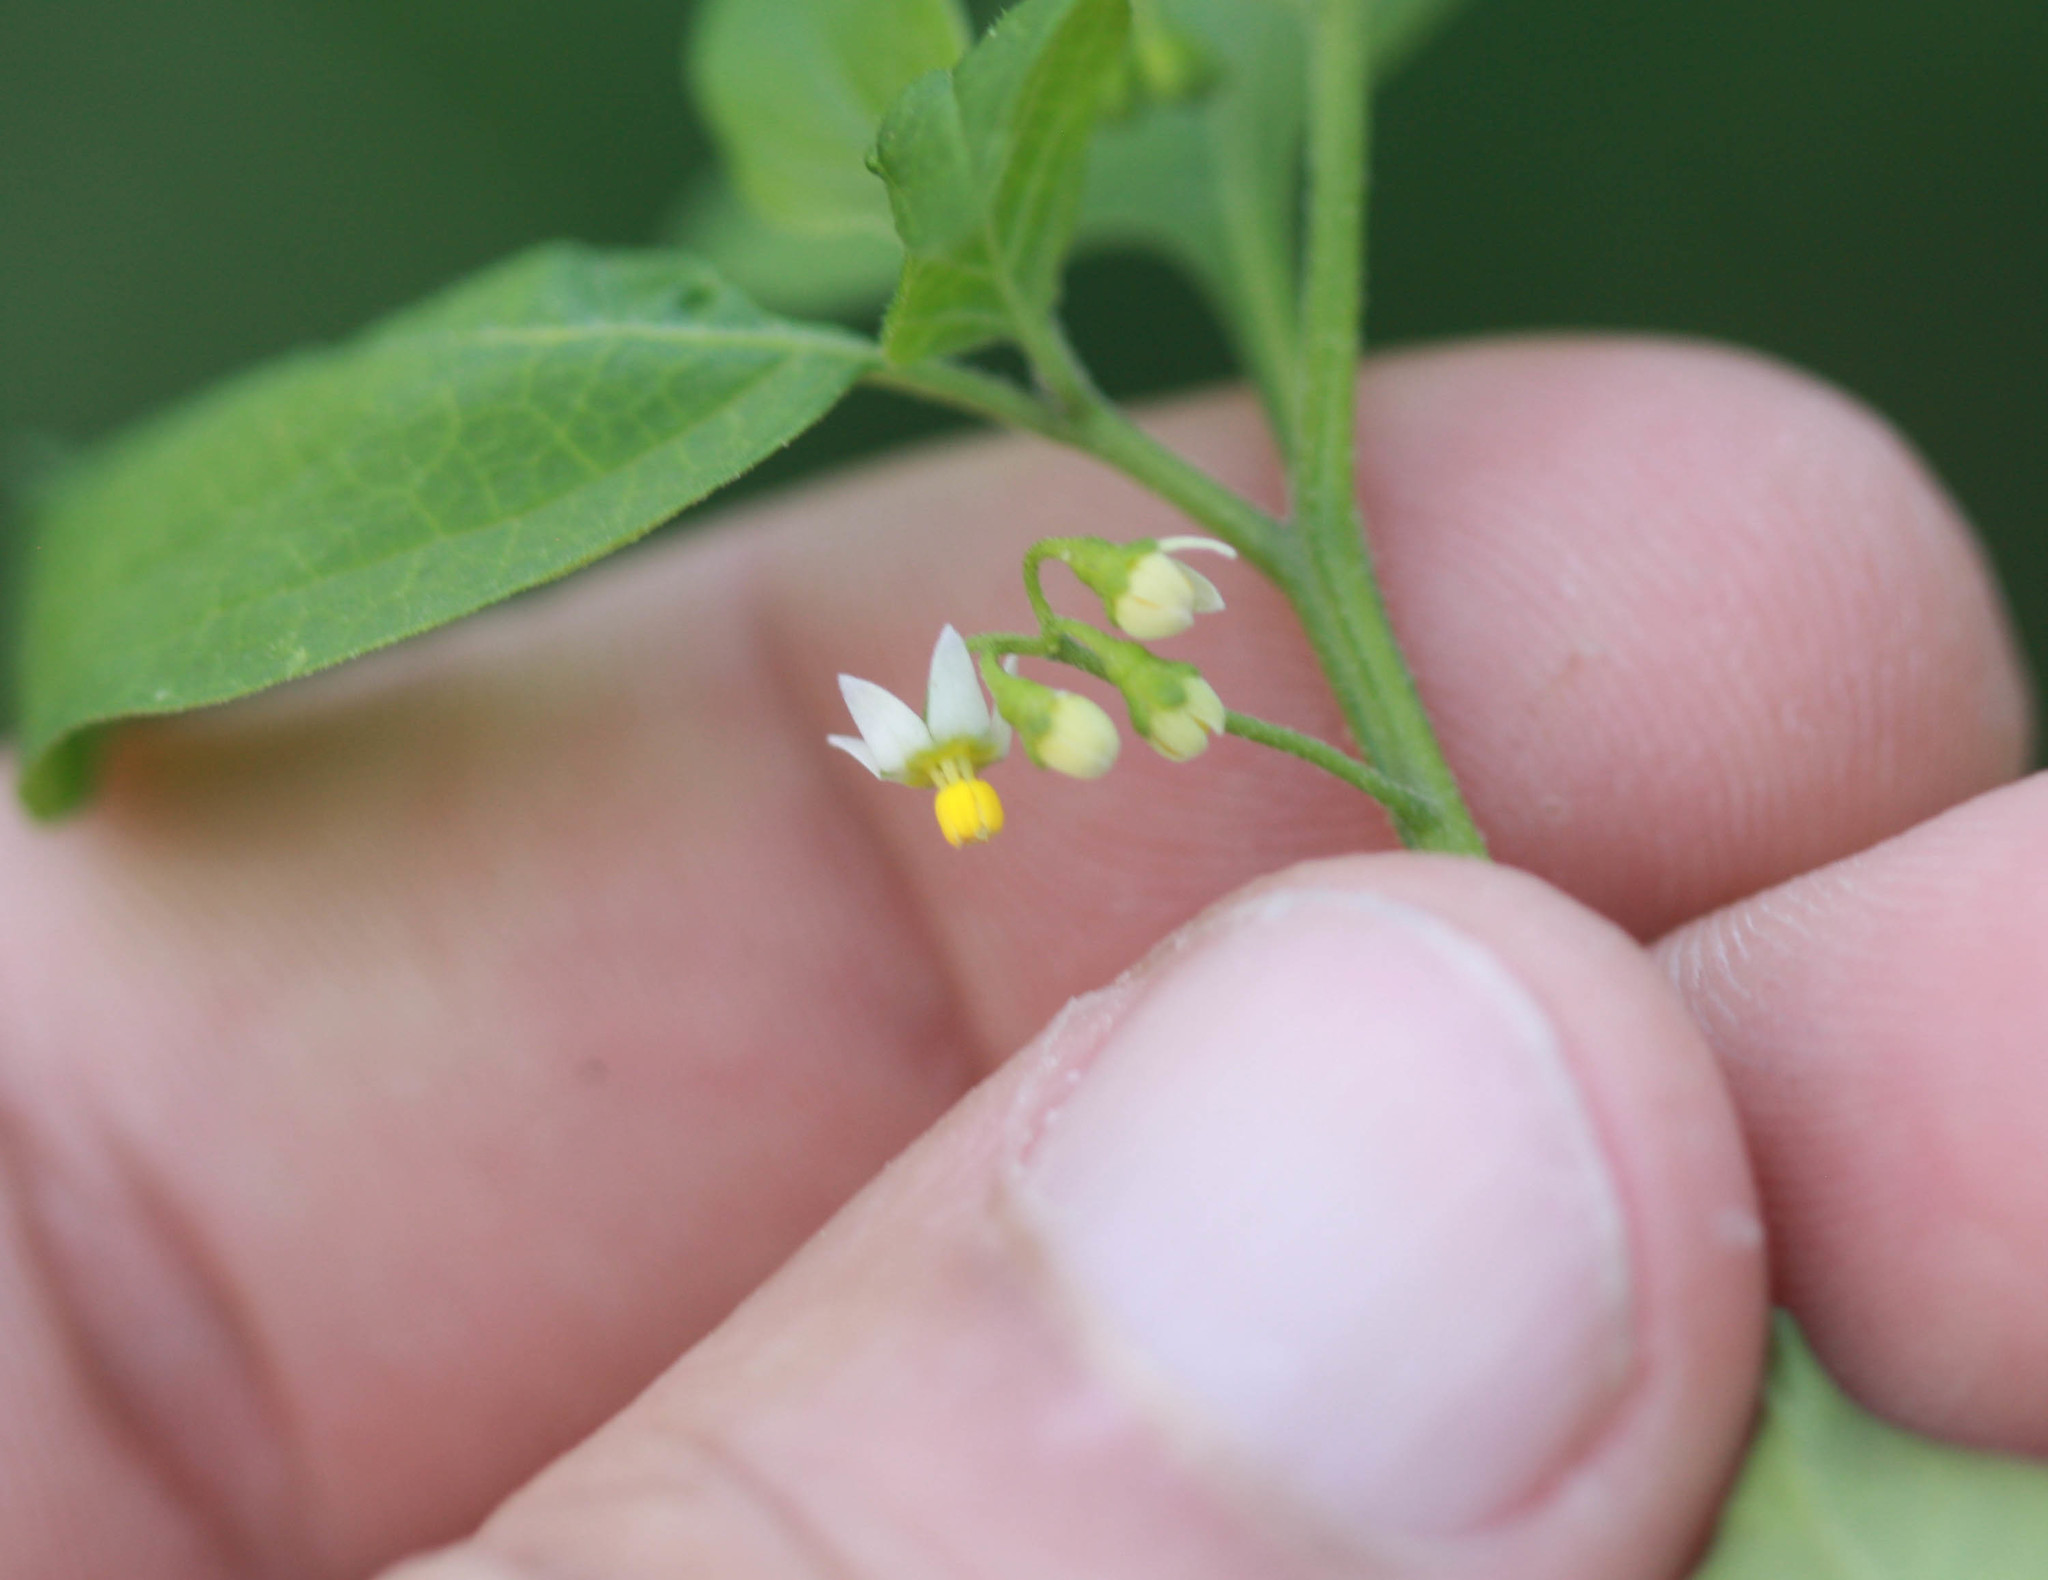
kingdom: Plantae
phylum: Tracheophyta
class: Magnoliopsida
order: Solanales
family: Solanaceae
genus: Solanum
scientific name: Solanum americanum
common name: American black nightshade
